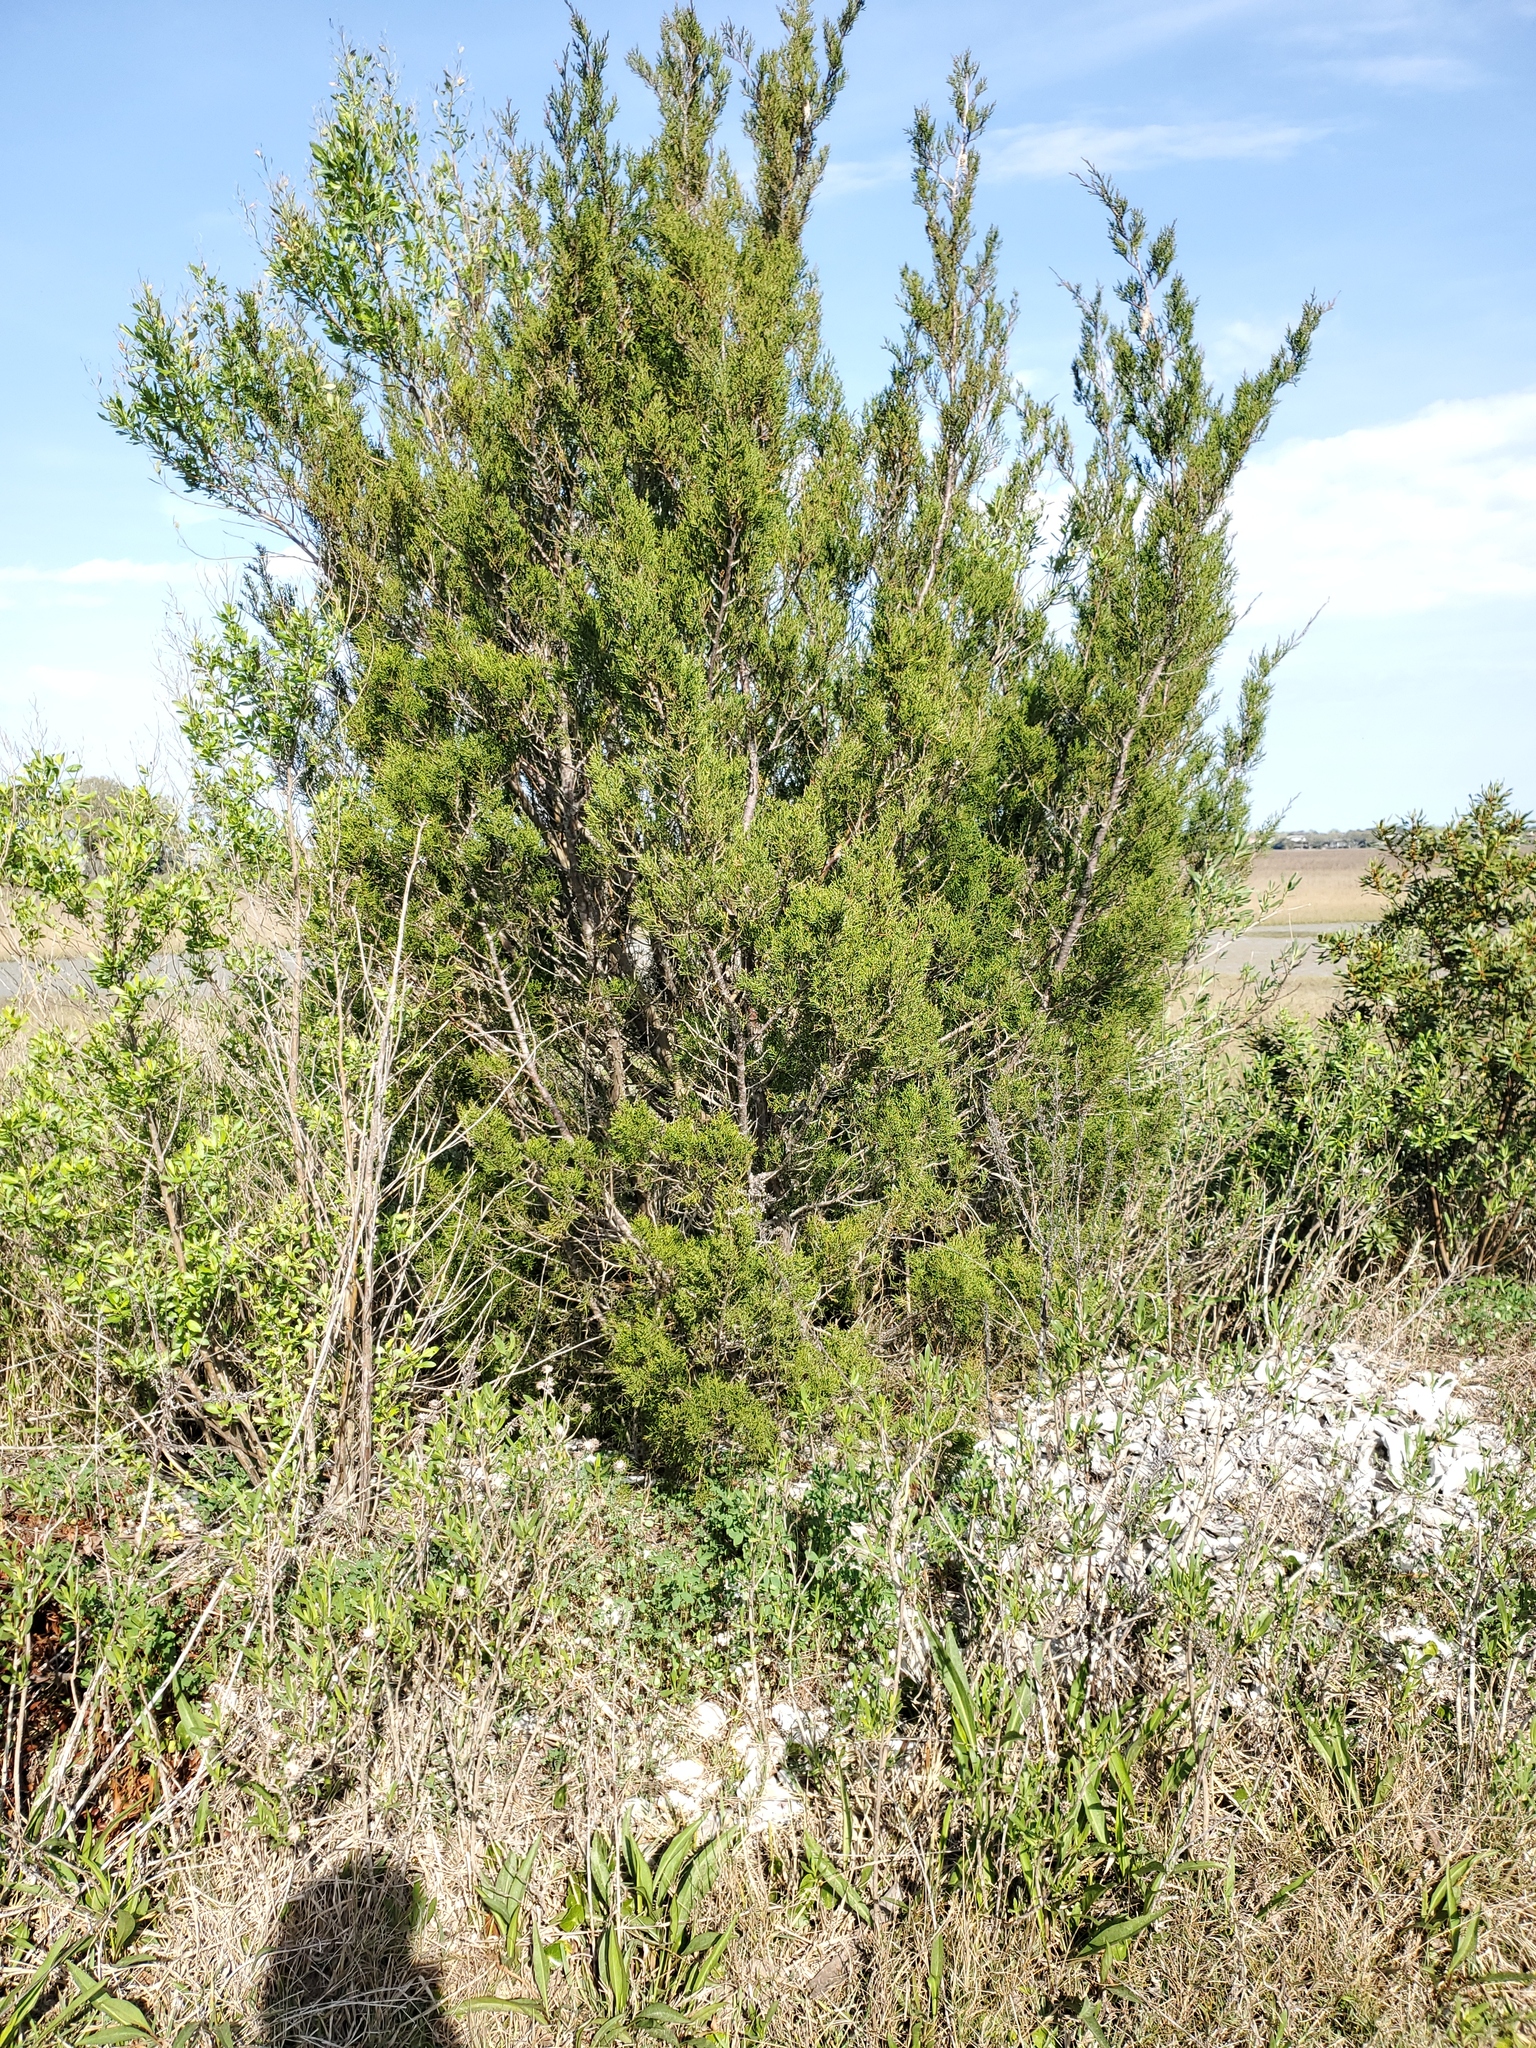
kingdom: Plantae
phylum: Tracheophyta
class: Pinopsida
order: Pinales
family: Cupressaceae
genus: Juniperus
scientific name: Juniperus virginiana
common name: Red juniper
